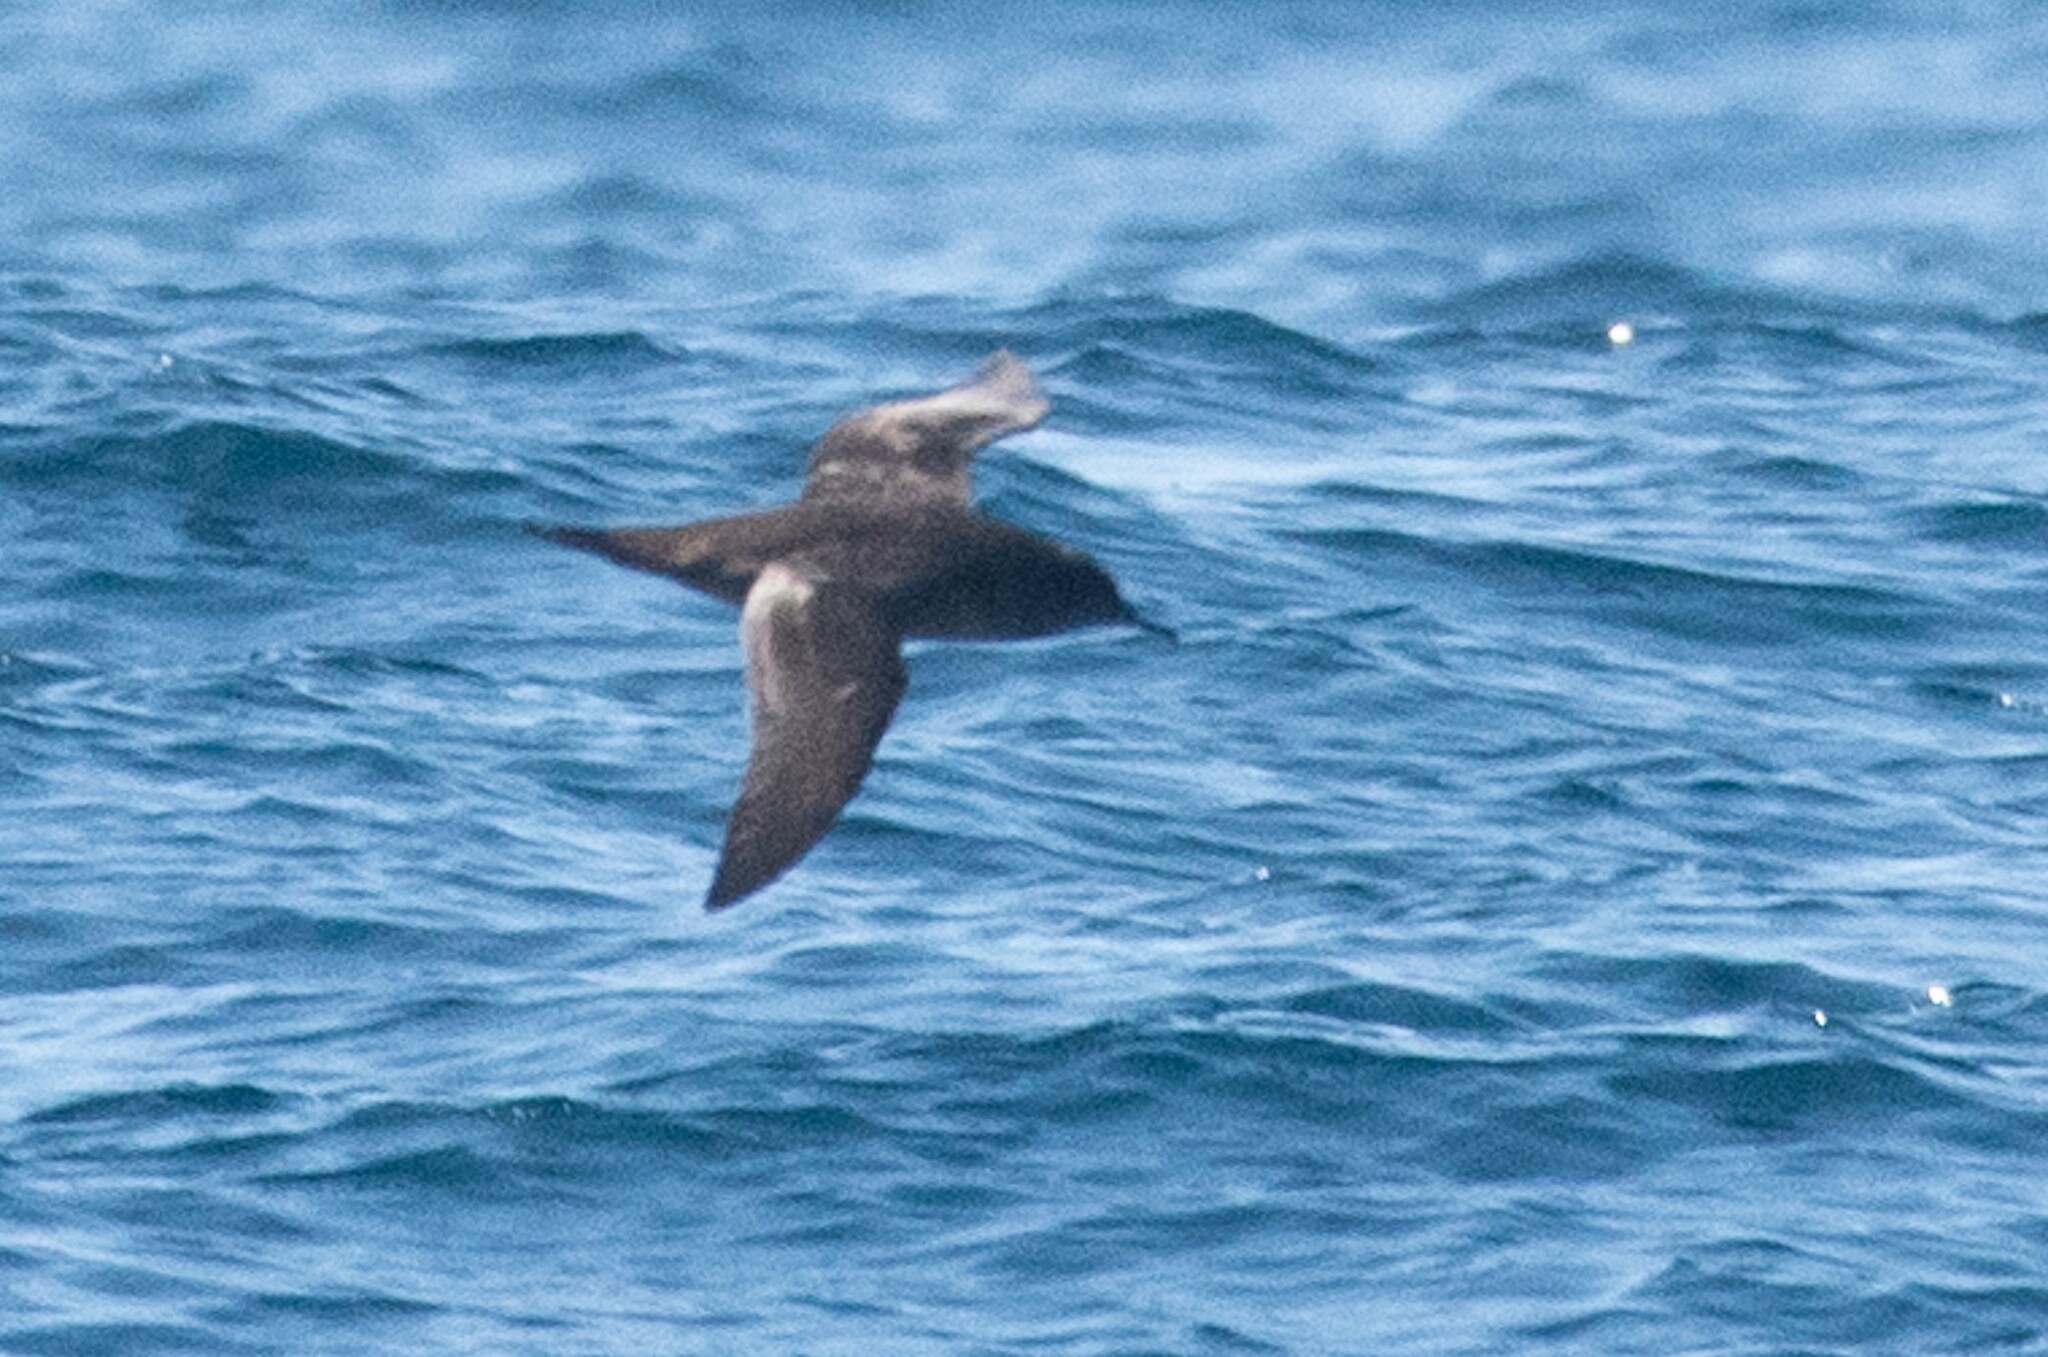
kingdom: Animalia
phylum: Chordata
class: Aves
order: Procellariiformes
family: Procellariidae
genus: Puffinus
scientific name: Puffinus griseus
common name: Sooty shearwater
